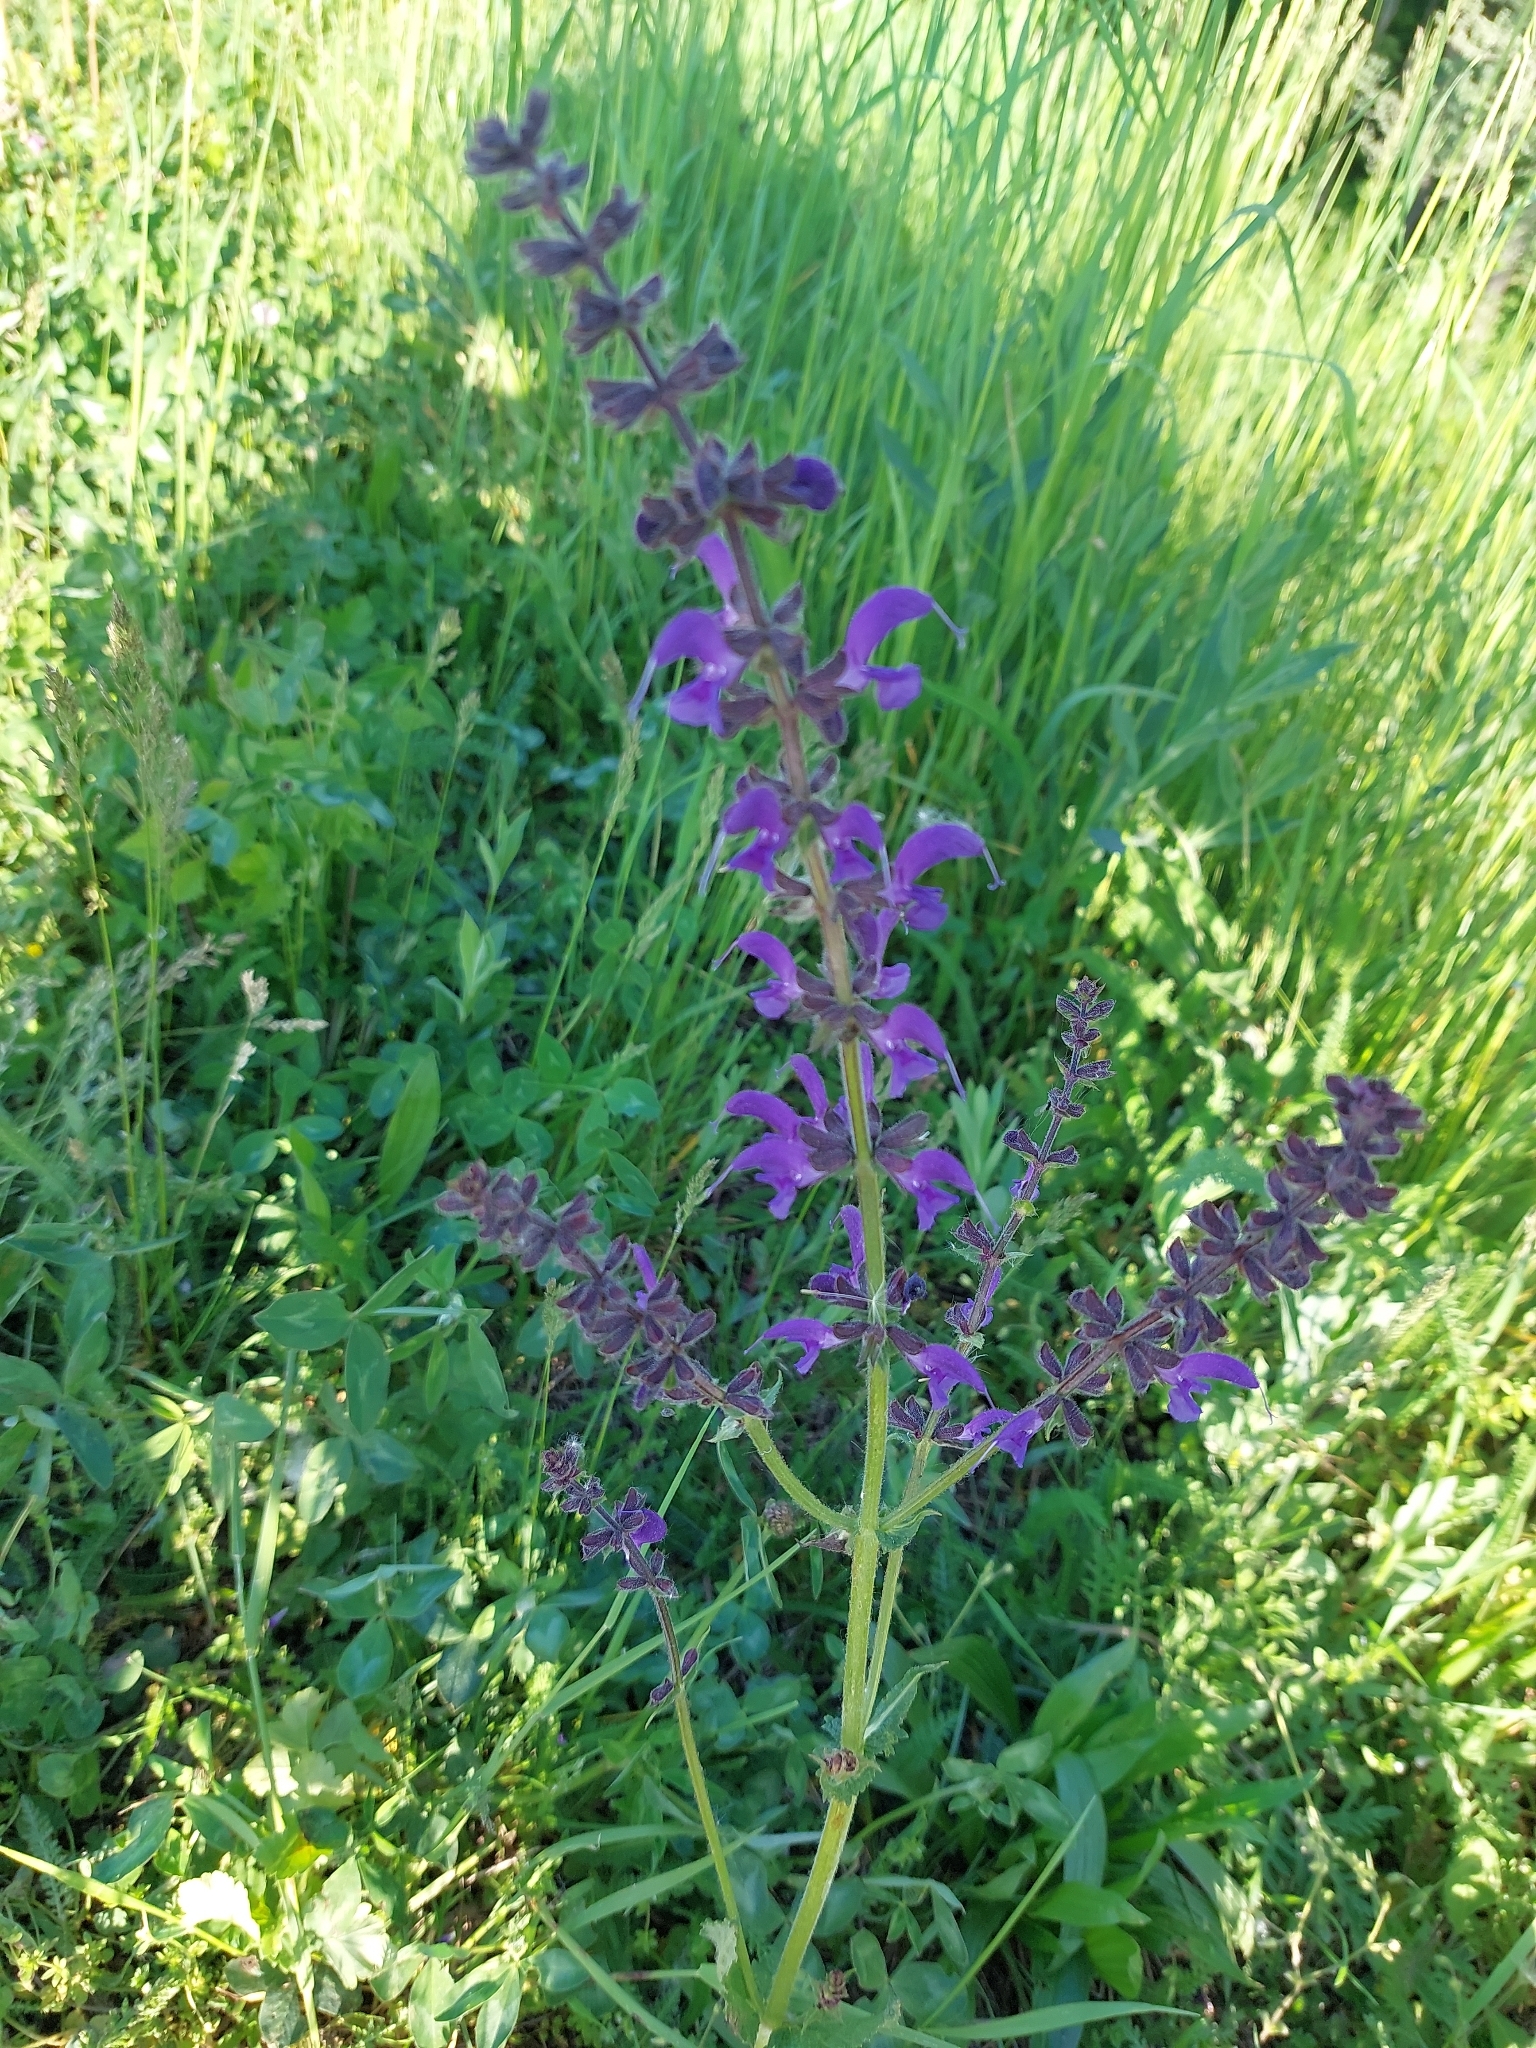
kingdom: Plantae
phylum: Tracheophyta
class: Magnoliopsida
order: Lamiales
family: Lamiaceae
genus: Salvia
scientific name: Salvia pratensis
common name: Meadow sage
